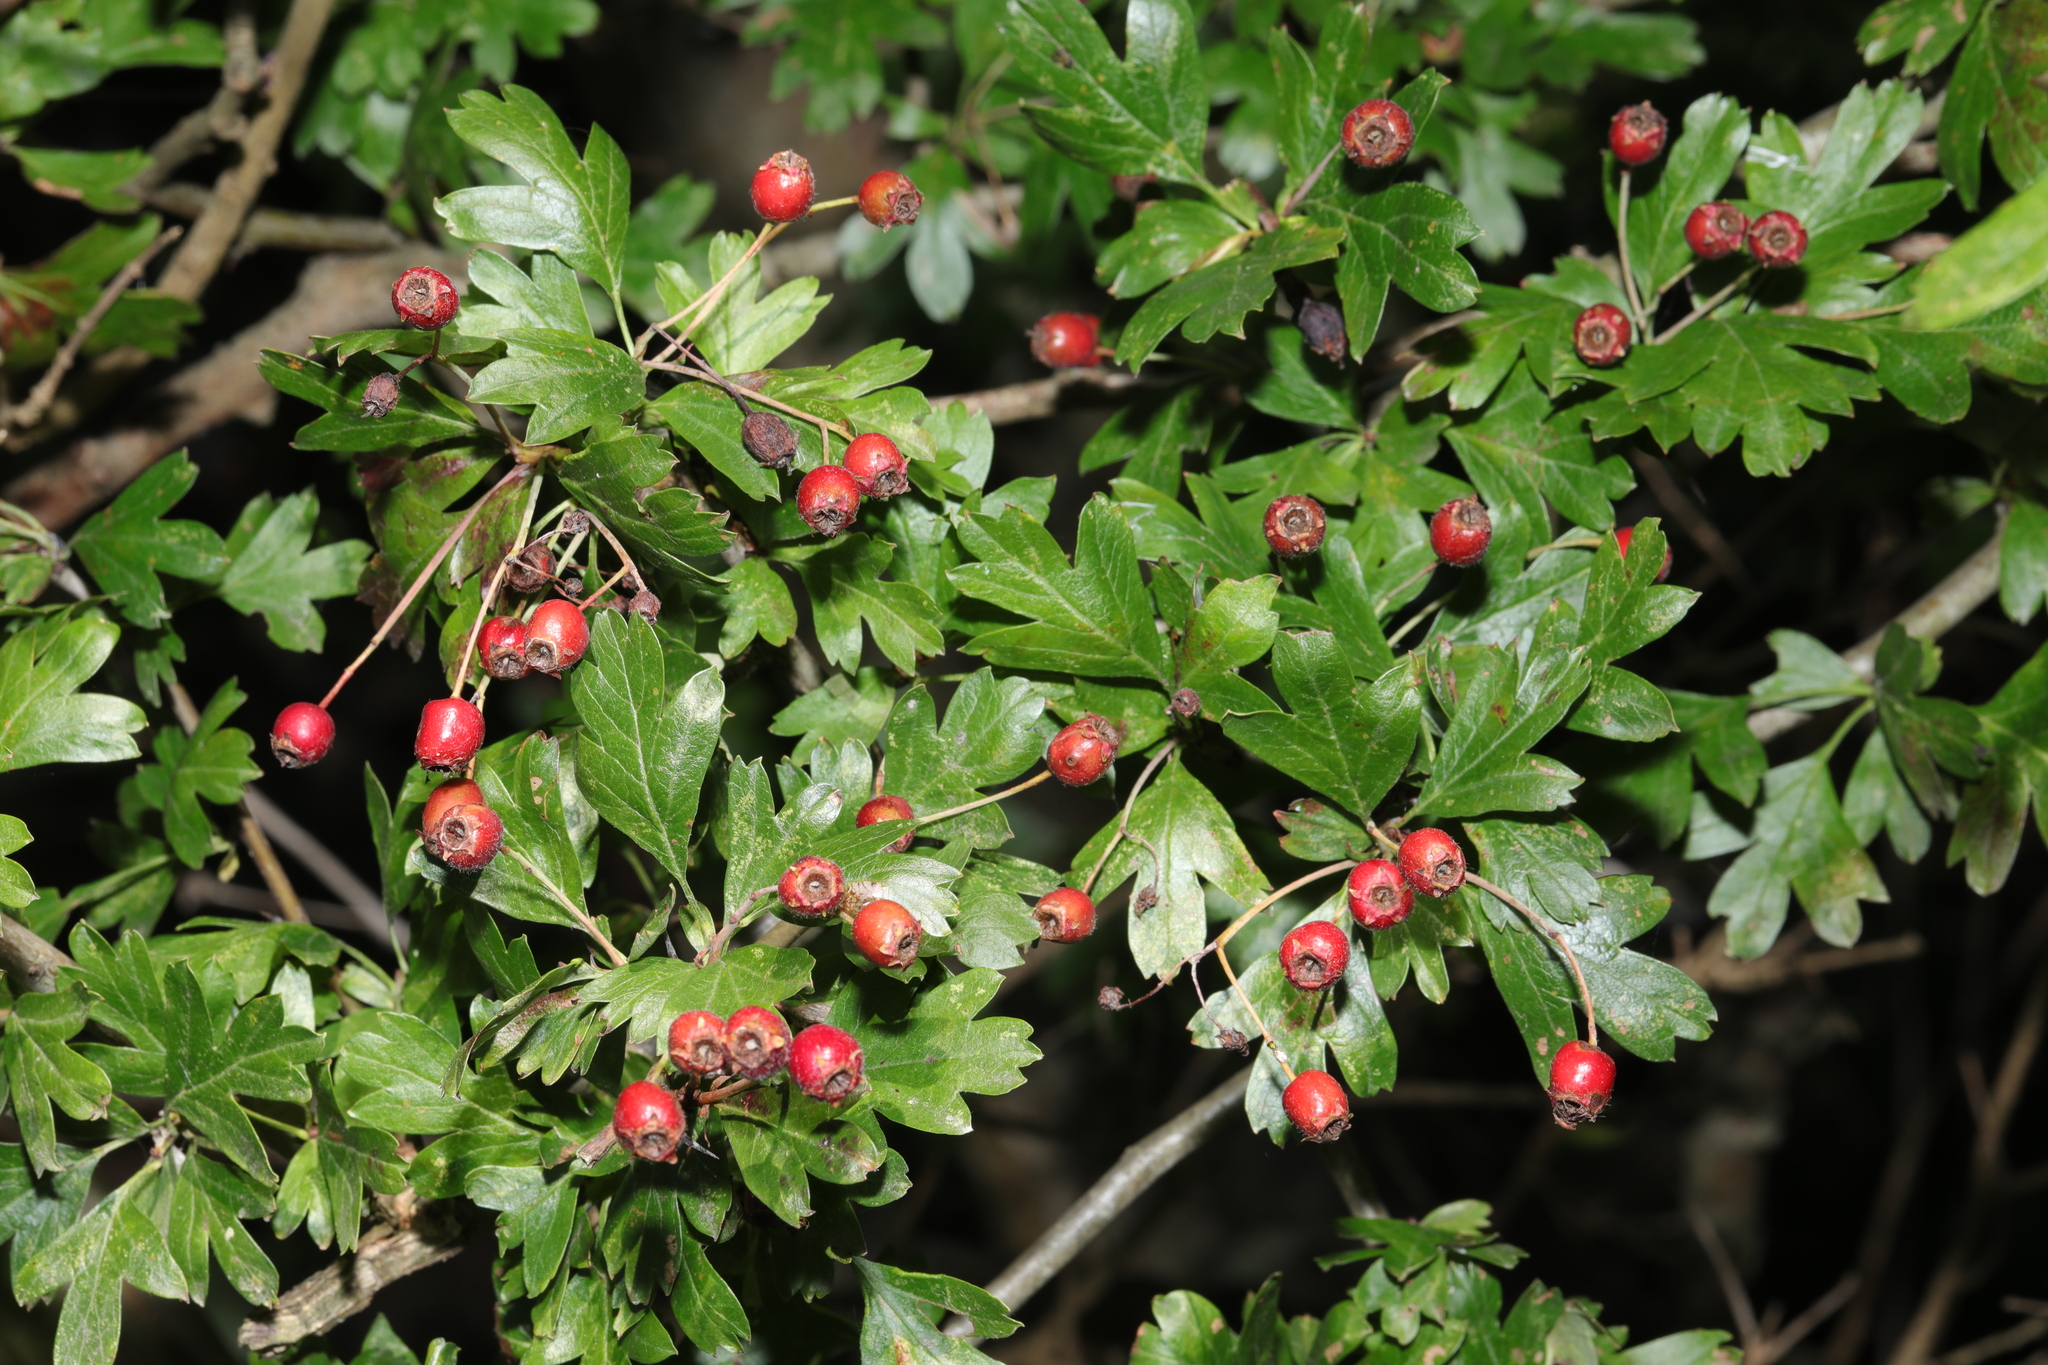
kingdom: Plantae
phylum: Tracheophyta
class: Magnoliopsida
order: Rosales
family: Rosaceae
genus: Crataegus
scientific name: Crataegus monogyna
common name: Hawthorn
